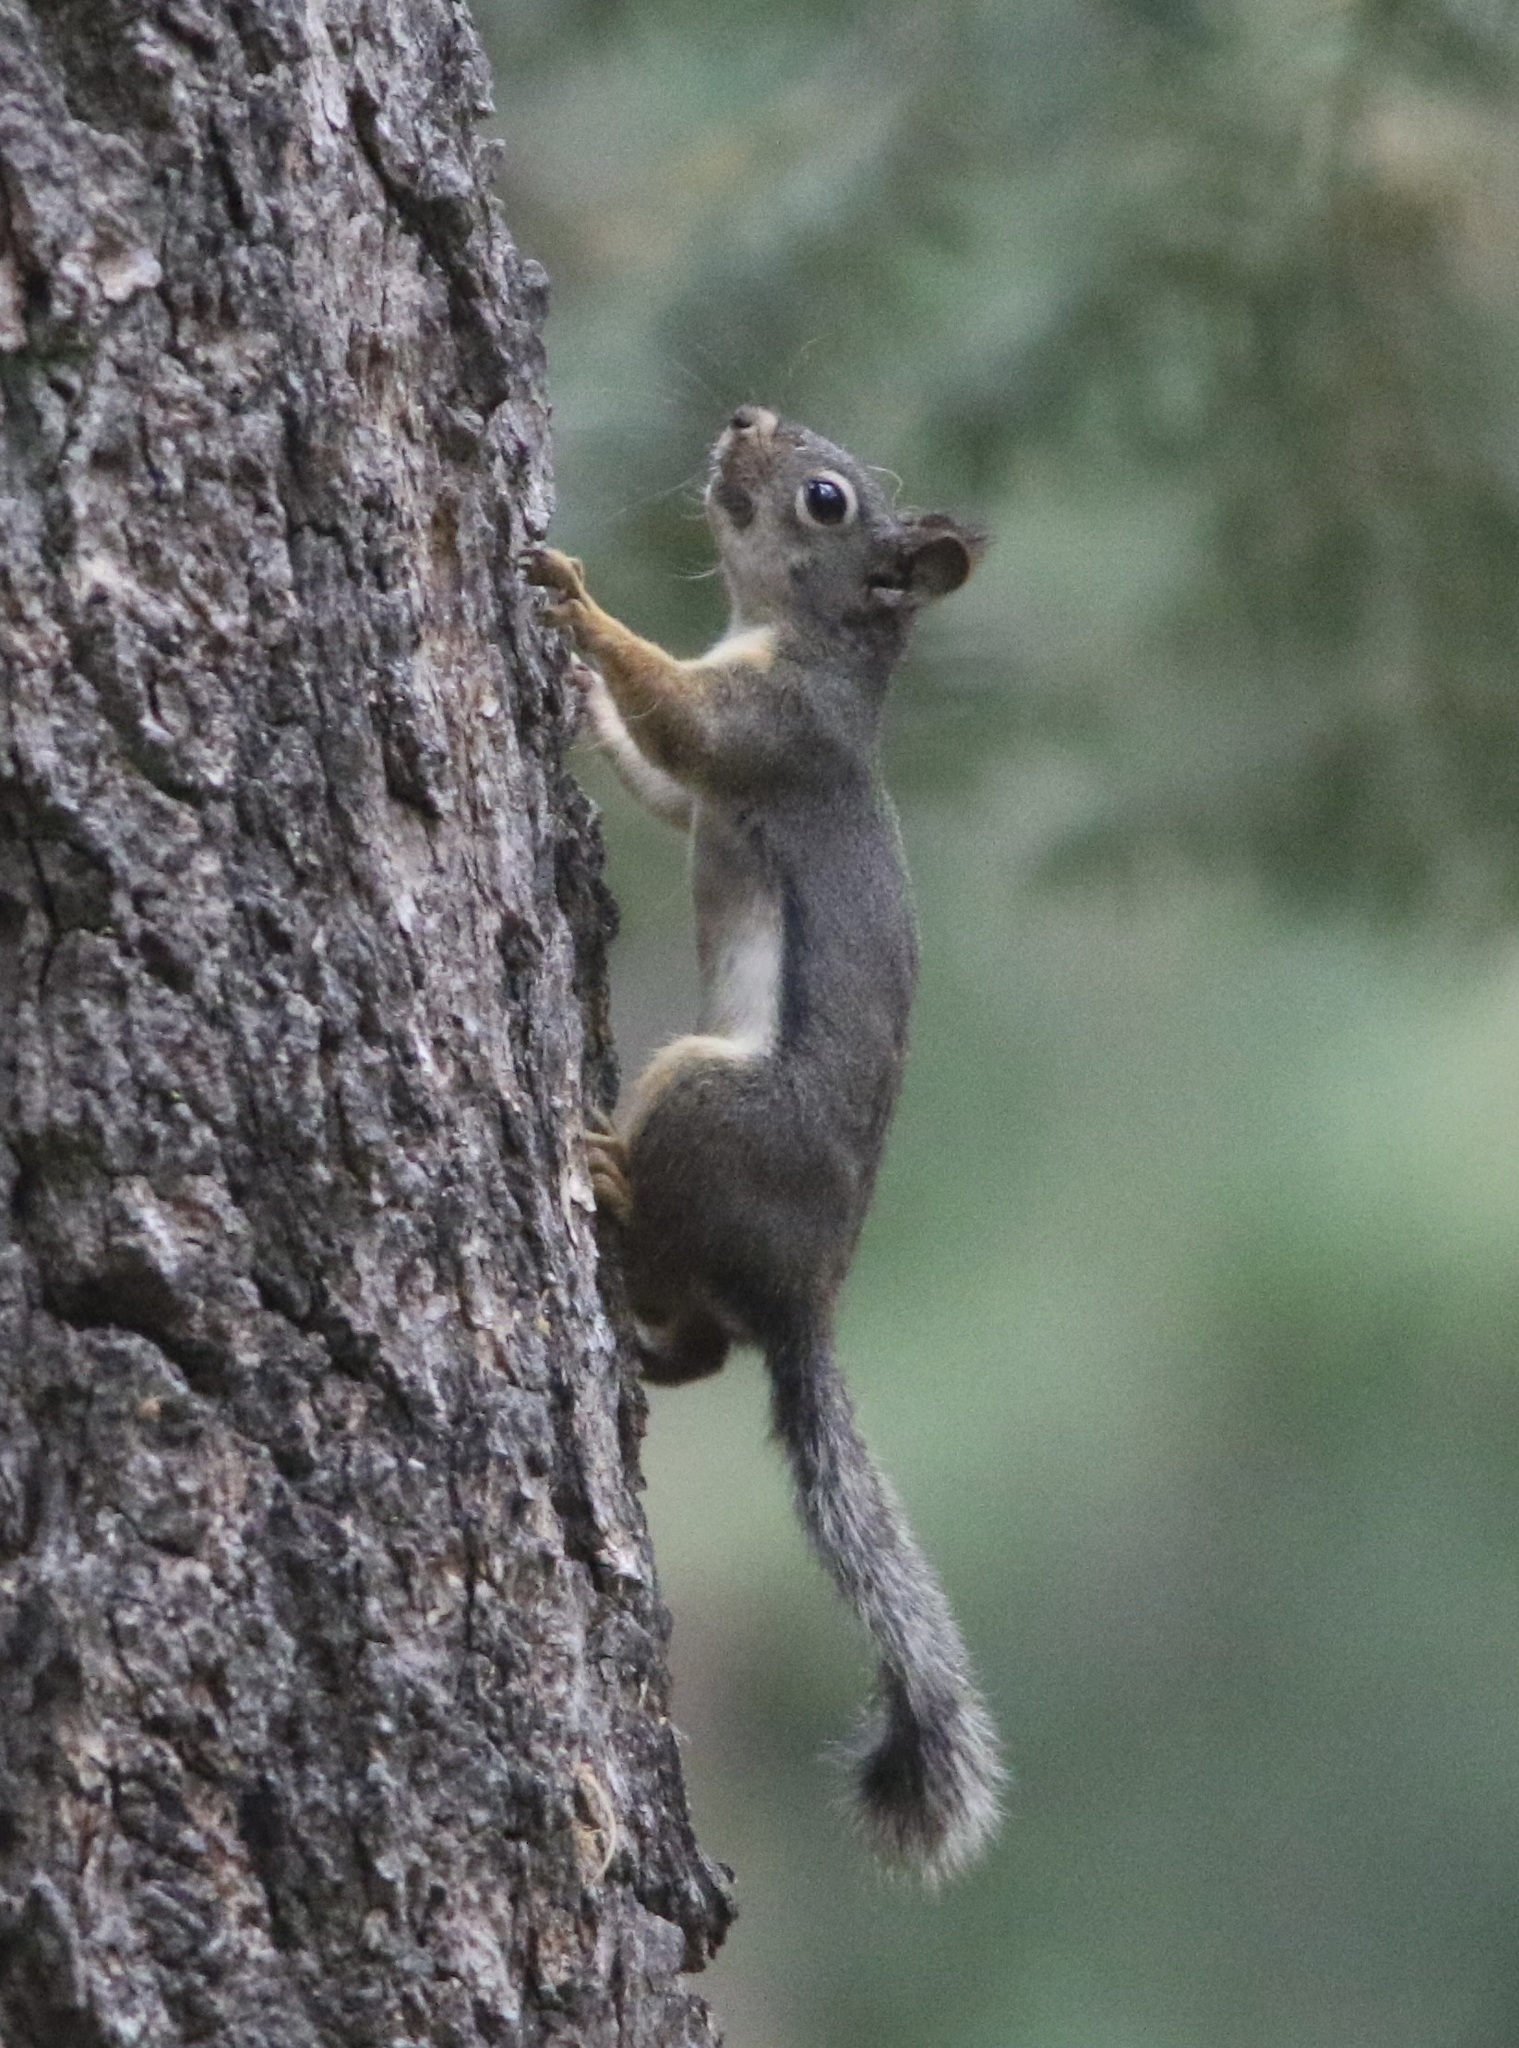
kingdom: Animalia
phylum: Chordata
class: Mammalia
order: Rodentia
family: Sciuridae
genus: Tamiasciurus
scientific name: Tamiasciurus douglasii
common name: Douglas's squirrel
